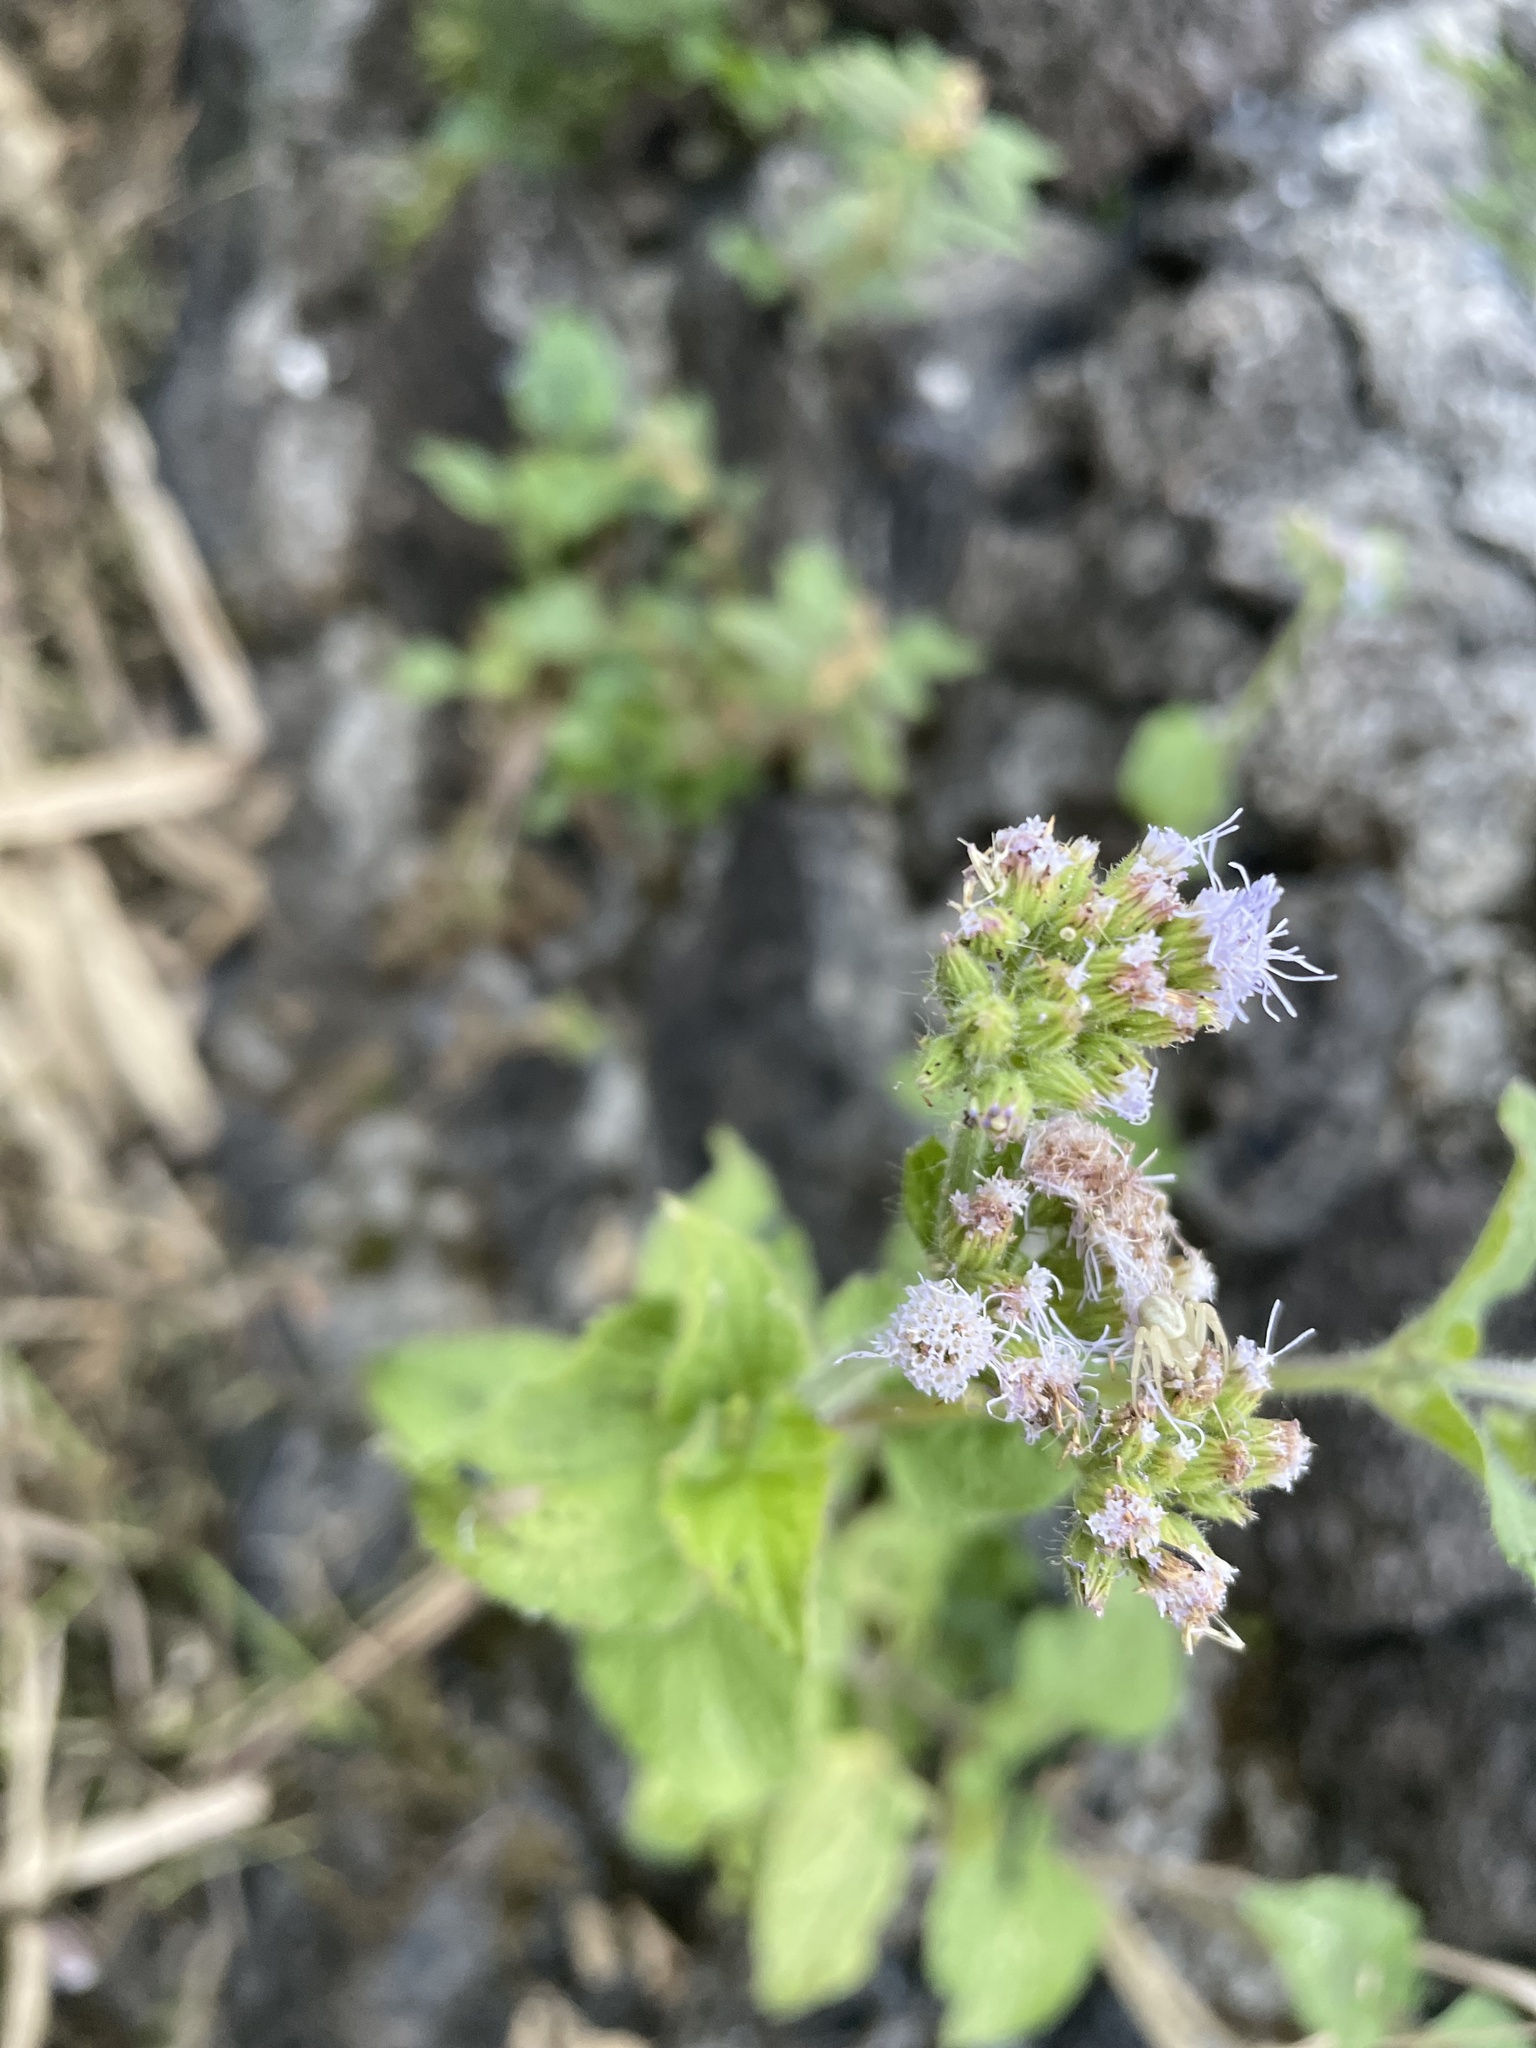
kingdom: Plantae
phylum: Tracheophyta
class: Magnoliopsida
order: Asterales
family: Asteraceae
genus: Ageratum
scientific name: Ageratum houstonianum
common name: Bluemink
